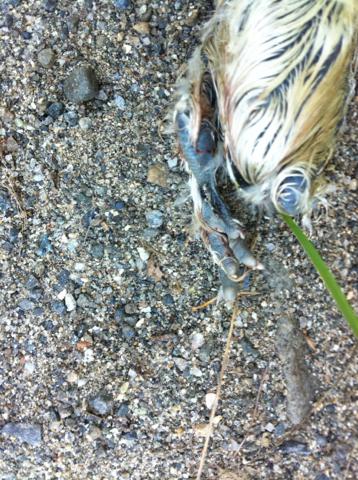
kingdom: Animalia
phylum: Chordata
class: Aves
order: Columbiformes
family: Columbidae
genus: Zenaida
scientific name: Zenaida macroura
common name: Mourning dove
